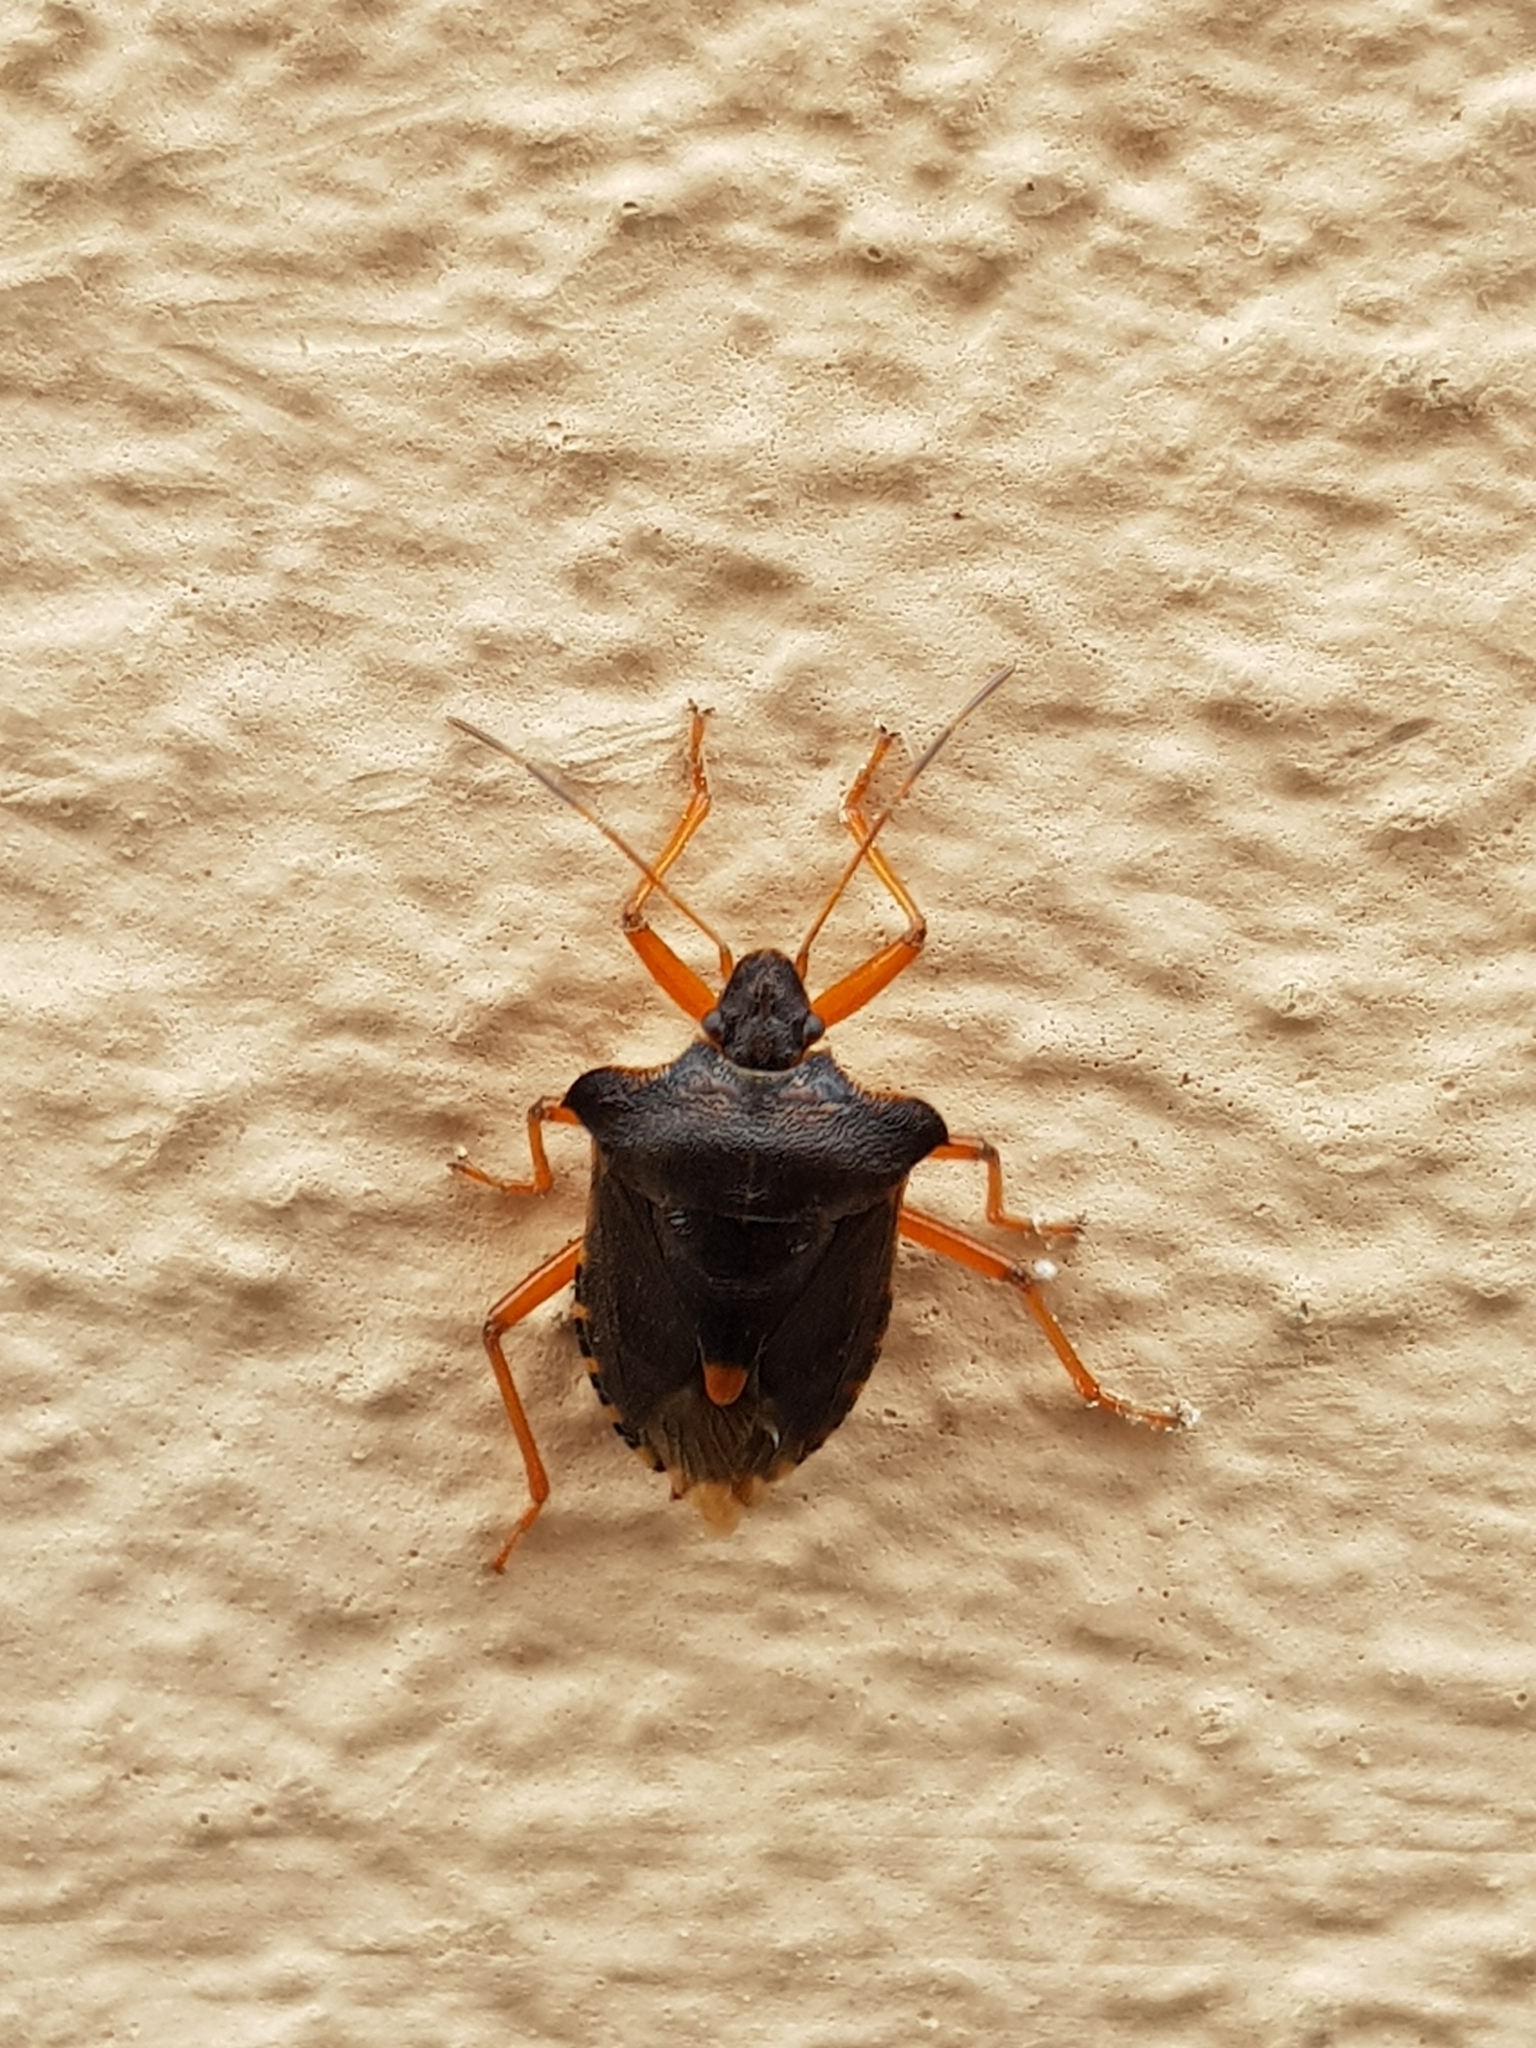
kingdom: Animalia
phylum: Arthropoda
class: Insecta
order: Hemiptera
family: Pentatomidae
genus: Pentatoma
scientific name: Pentatoma rufipes
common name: Forest bug
